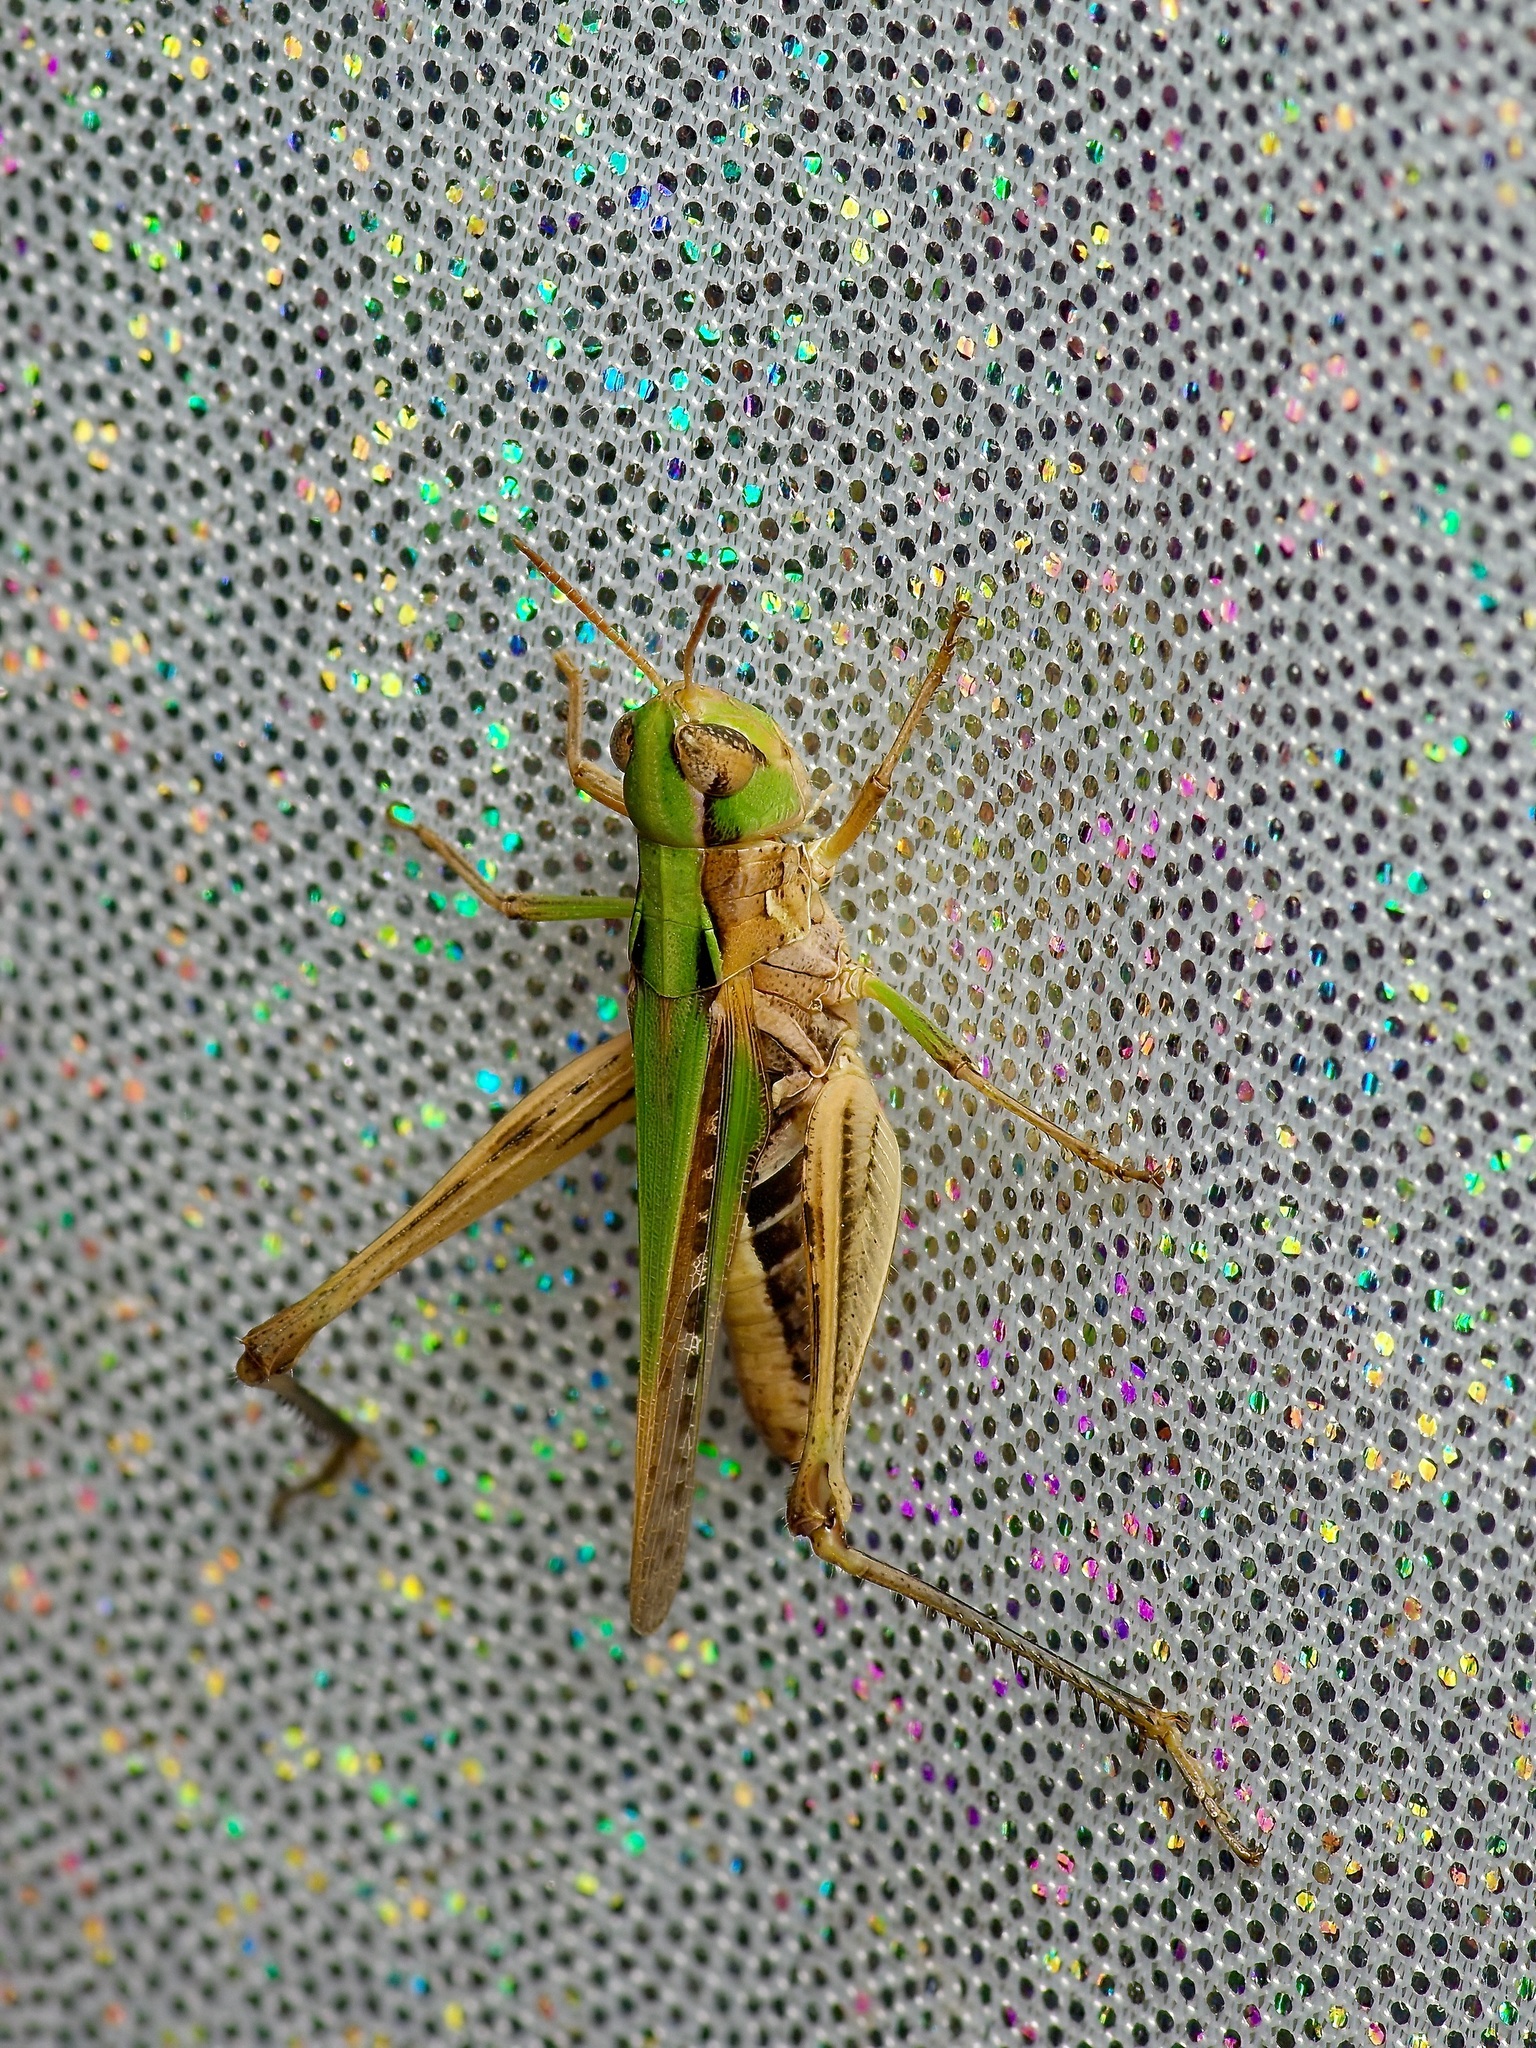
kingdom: Animalia
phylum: Arthropoda
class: Insecta
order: Orthoptera
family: Acrididae
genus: Orphulella
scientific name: Orphulella speciosa
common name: Pasture grasshopper
